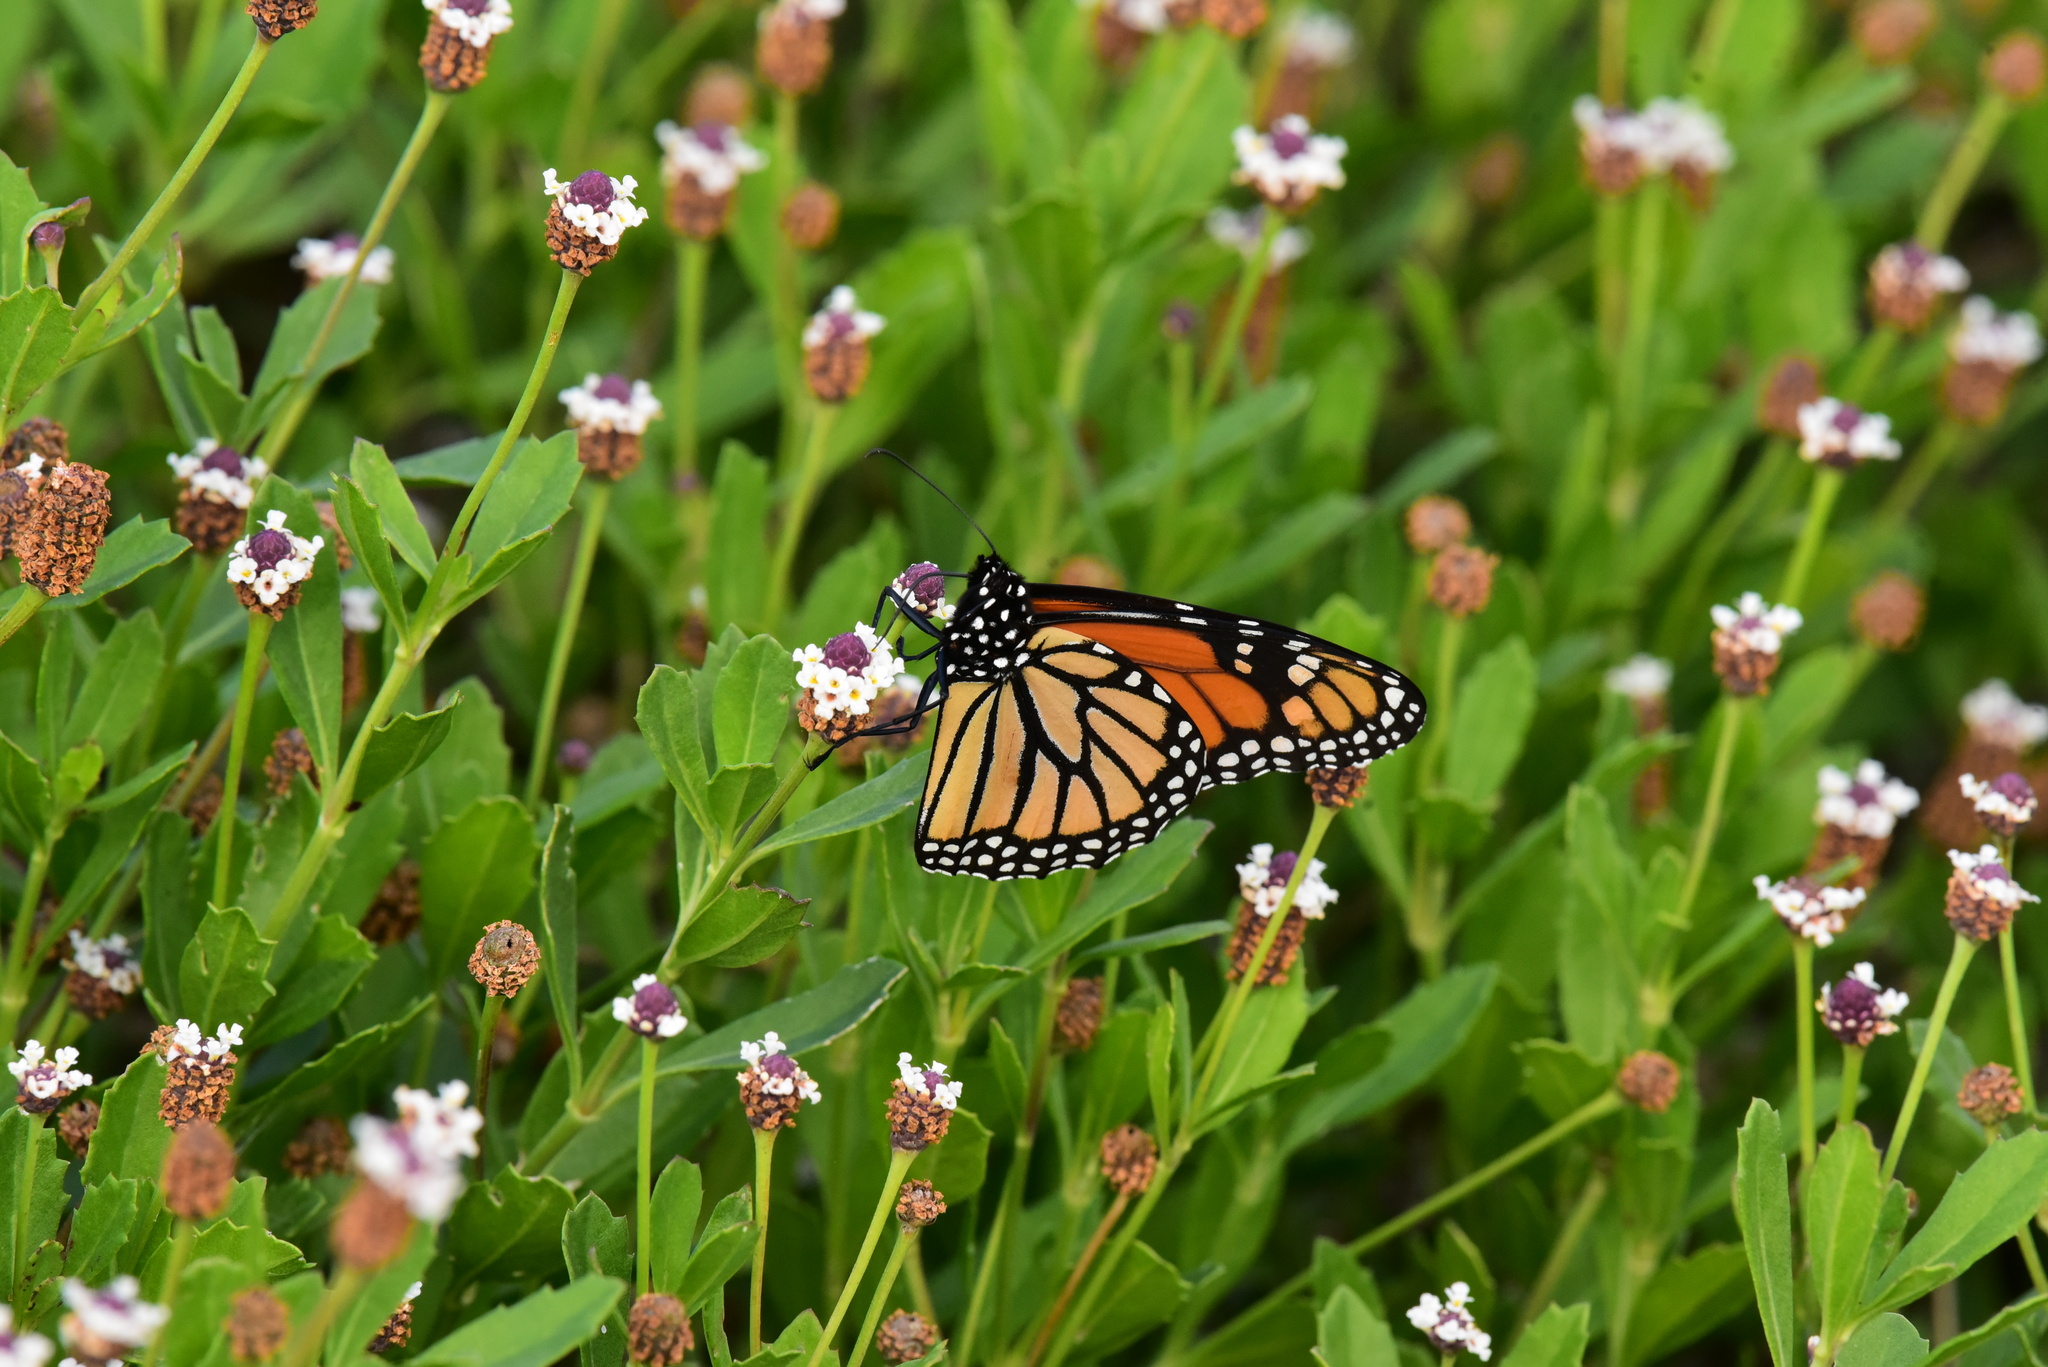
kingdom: Animalia
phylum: Arthropoda
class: Insecta
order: Lepidoptera
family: Nymphalidae
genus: Danaus
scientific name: Danaus plexippus
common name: Monarch
